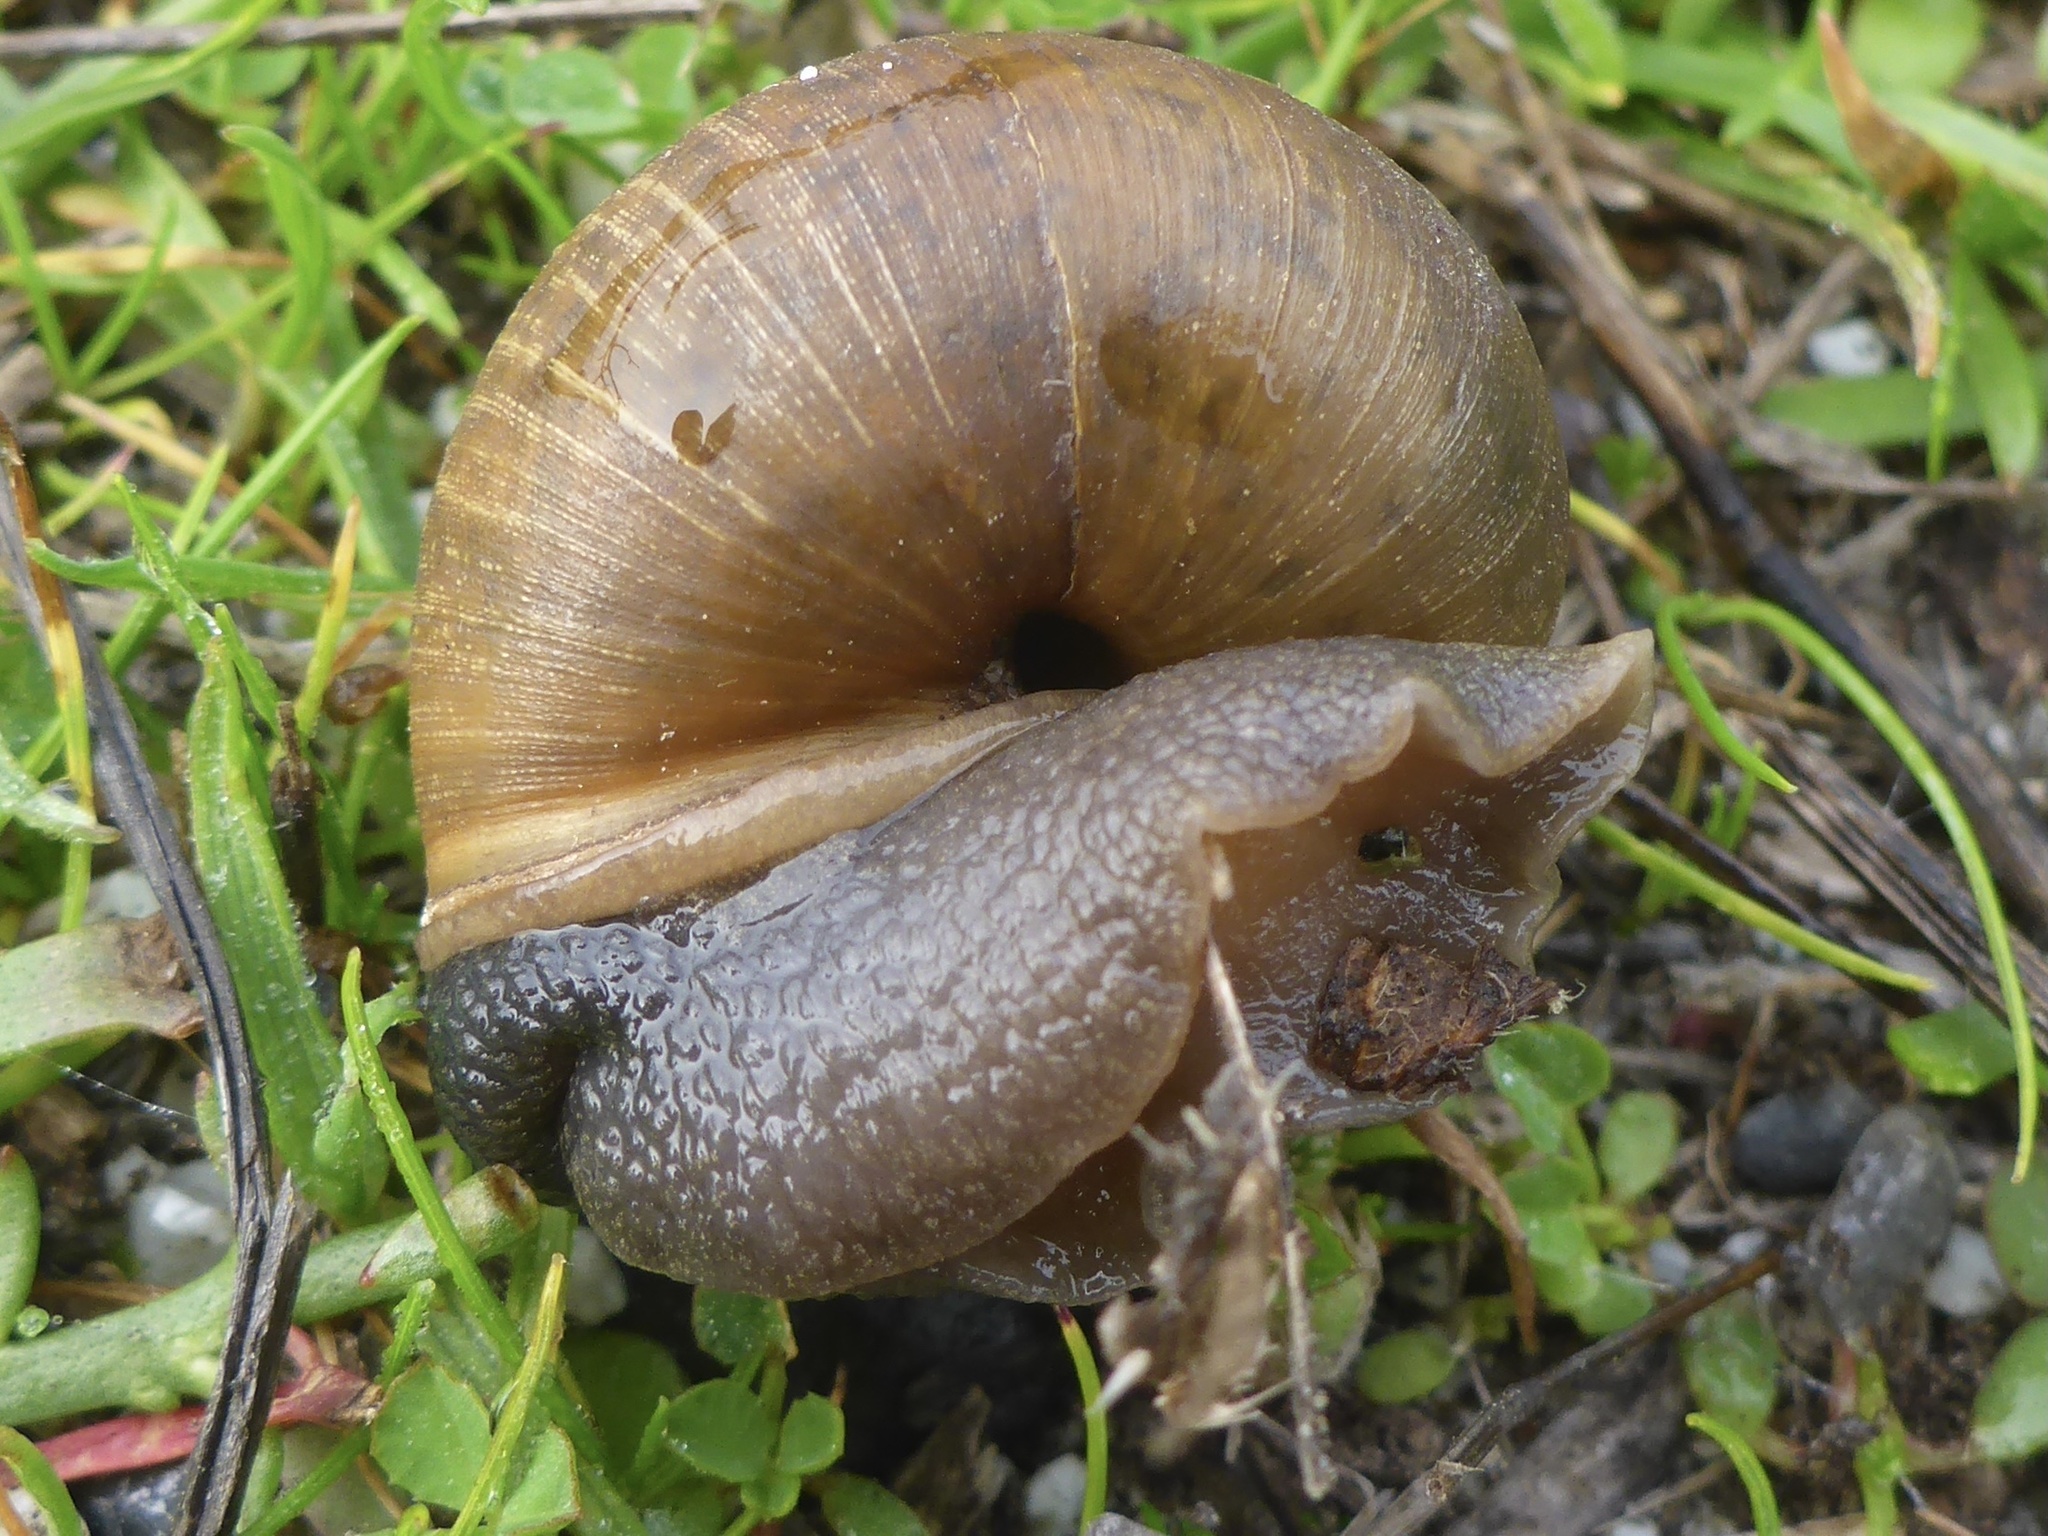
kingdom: Animalia
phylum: Mollusca
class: Gastropoda
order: Stylommatophora
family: Xanthonychidae
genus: Helminthoglypta
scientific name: Helminthoglypta nickliniana
